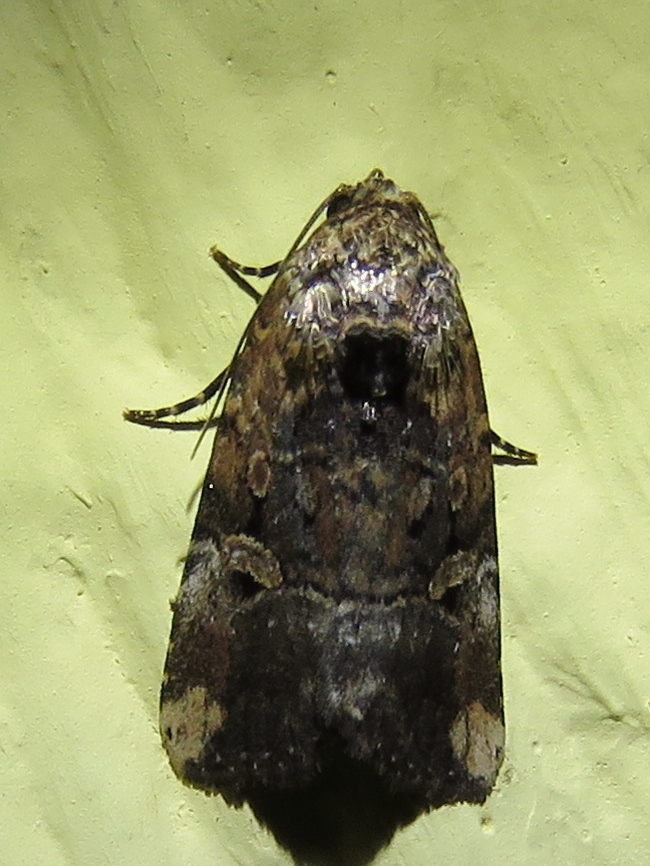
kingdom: Animalia
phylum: Arthropoda
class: Insecta
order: Lepidoptera
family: Noctuidae
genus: Elaphria
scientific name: Elaphria chalcedonia
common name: Chalcedony midget
